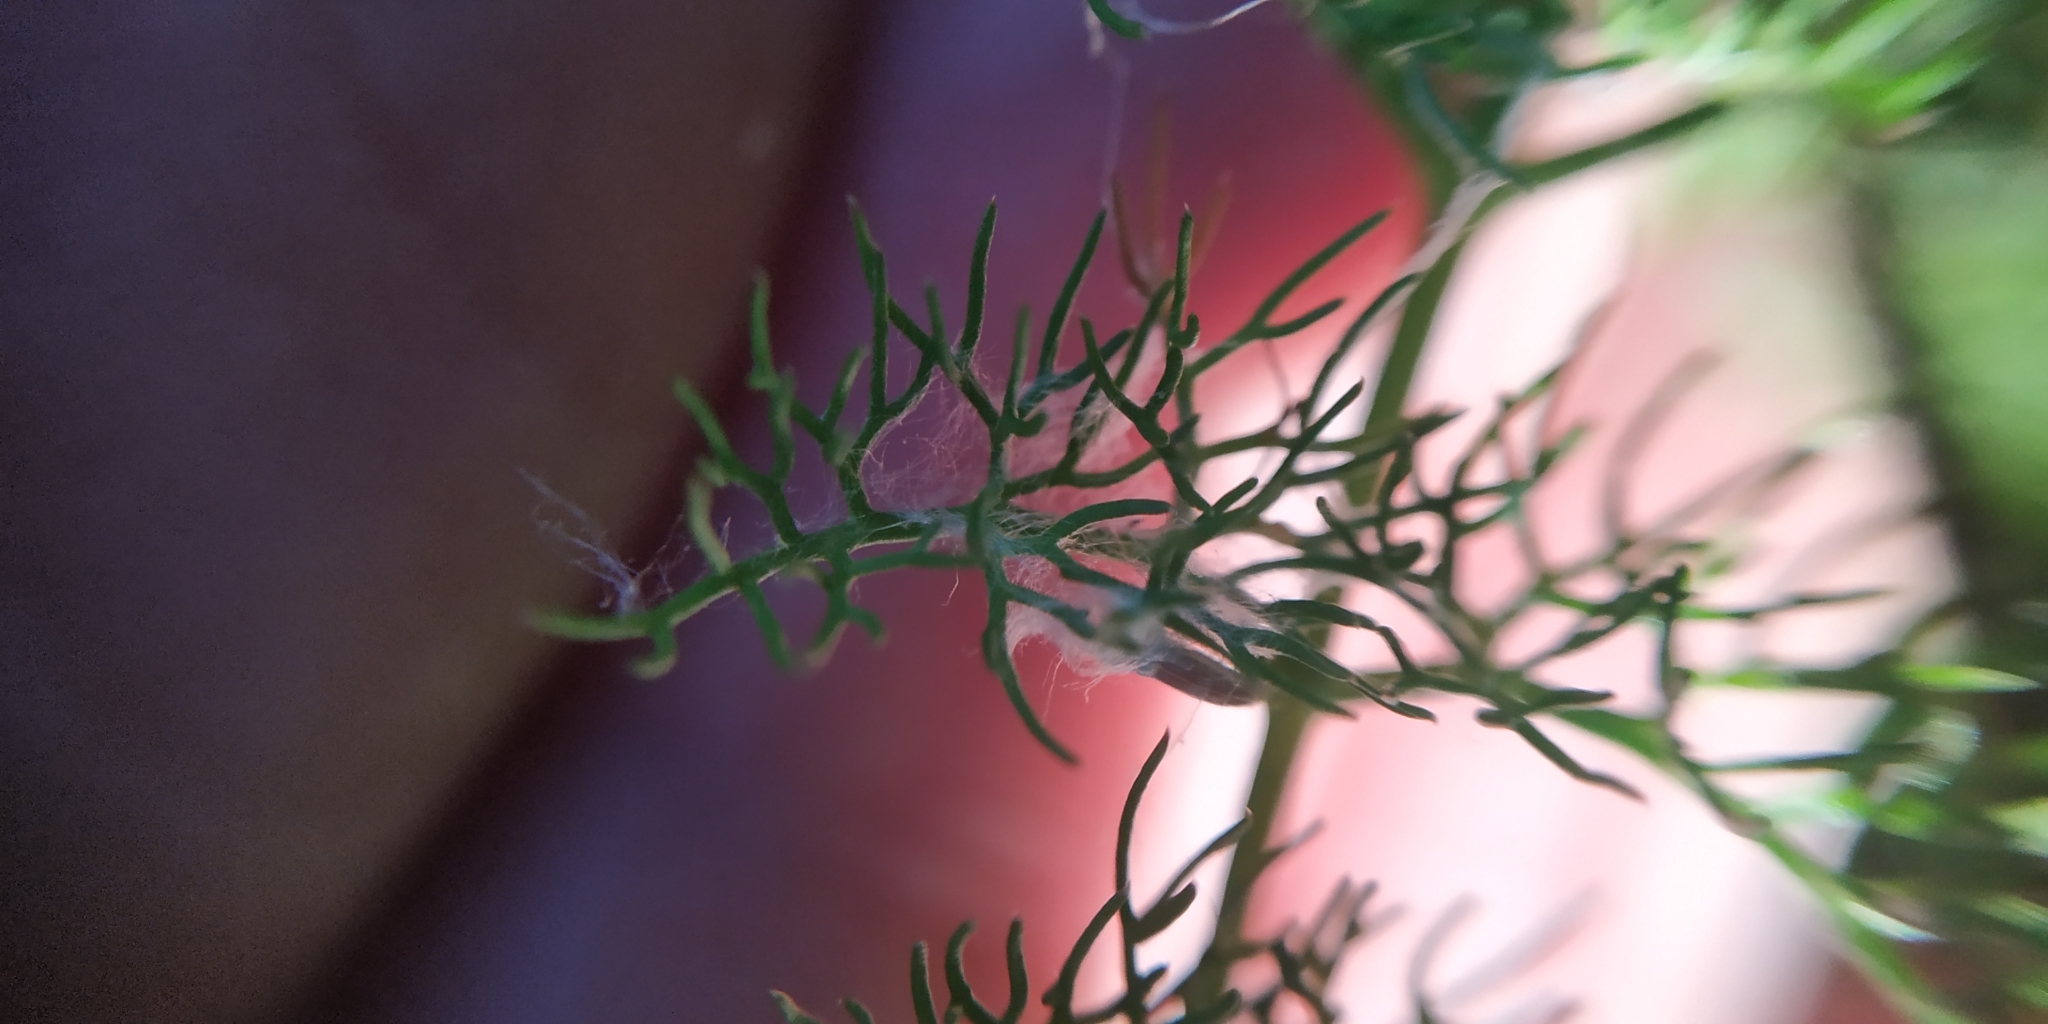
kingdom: Plantae
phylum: Tracheophyta
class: Magnoliopsida
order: Apiales
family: Apiaceae
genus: Oenanthe
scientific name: Oenanthe aquatica
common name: Fine-leaved water-dropwort
